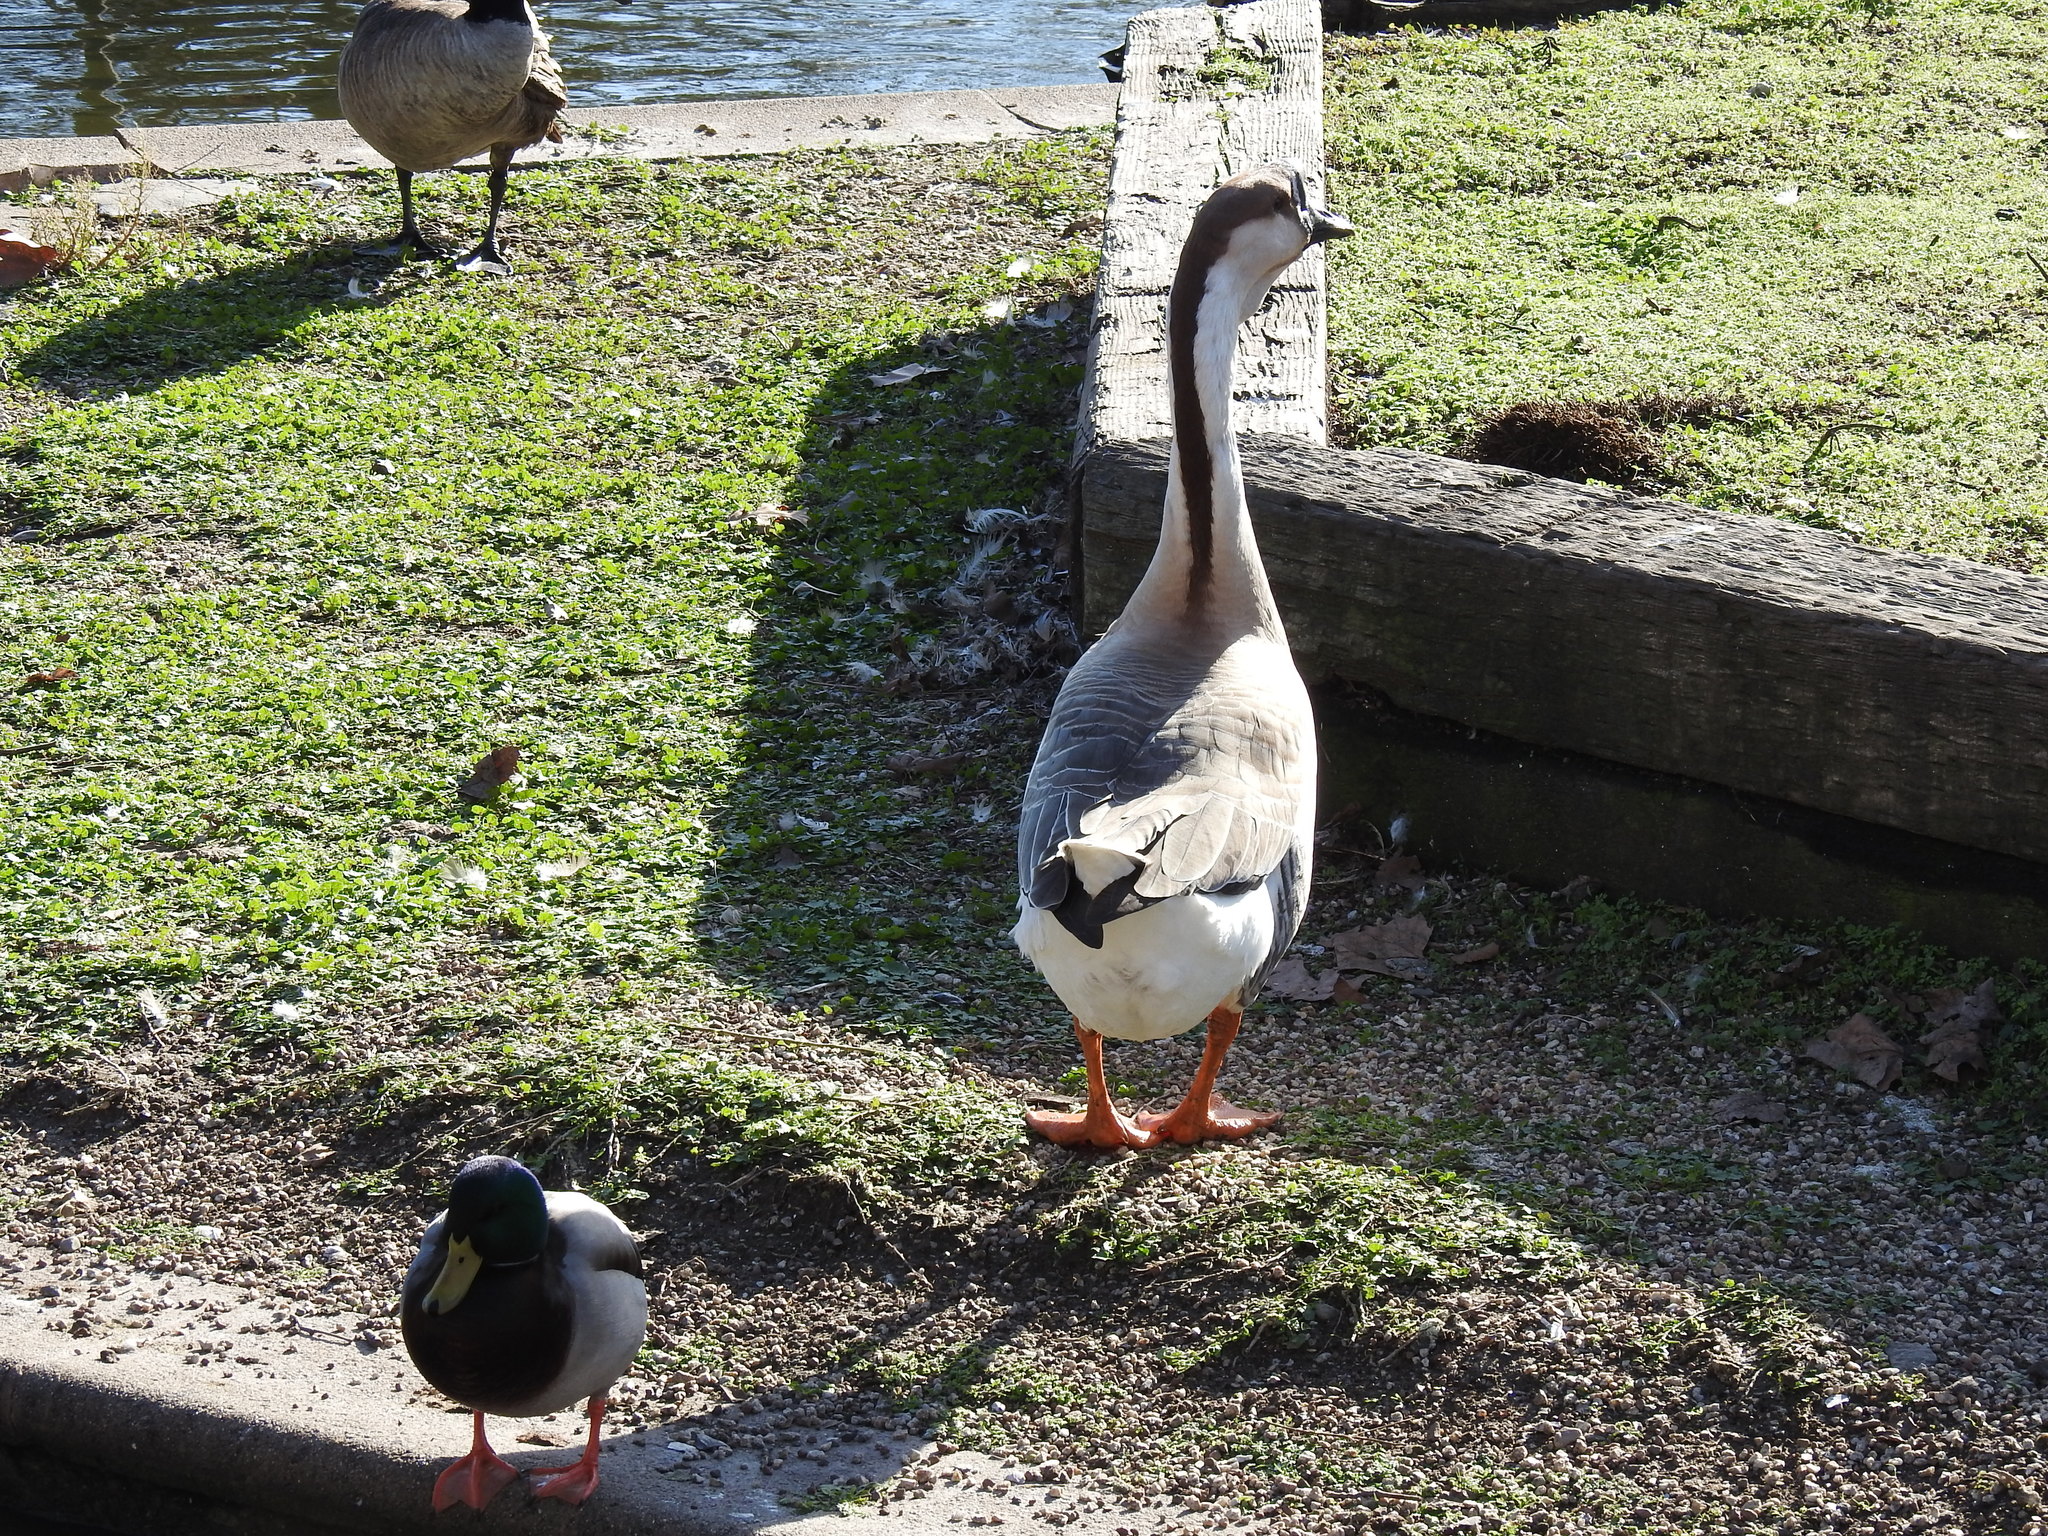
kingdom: Animalia
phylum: Chordata
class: Aves
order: Anseriformes
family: Anatidae
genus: Anser
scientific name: Anser cygnoides
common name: Swan goose
